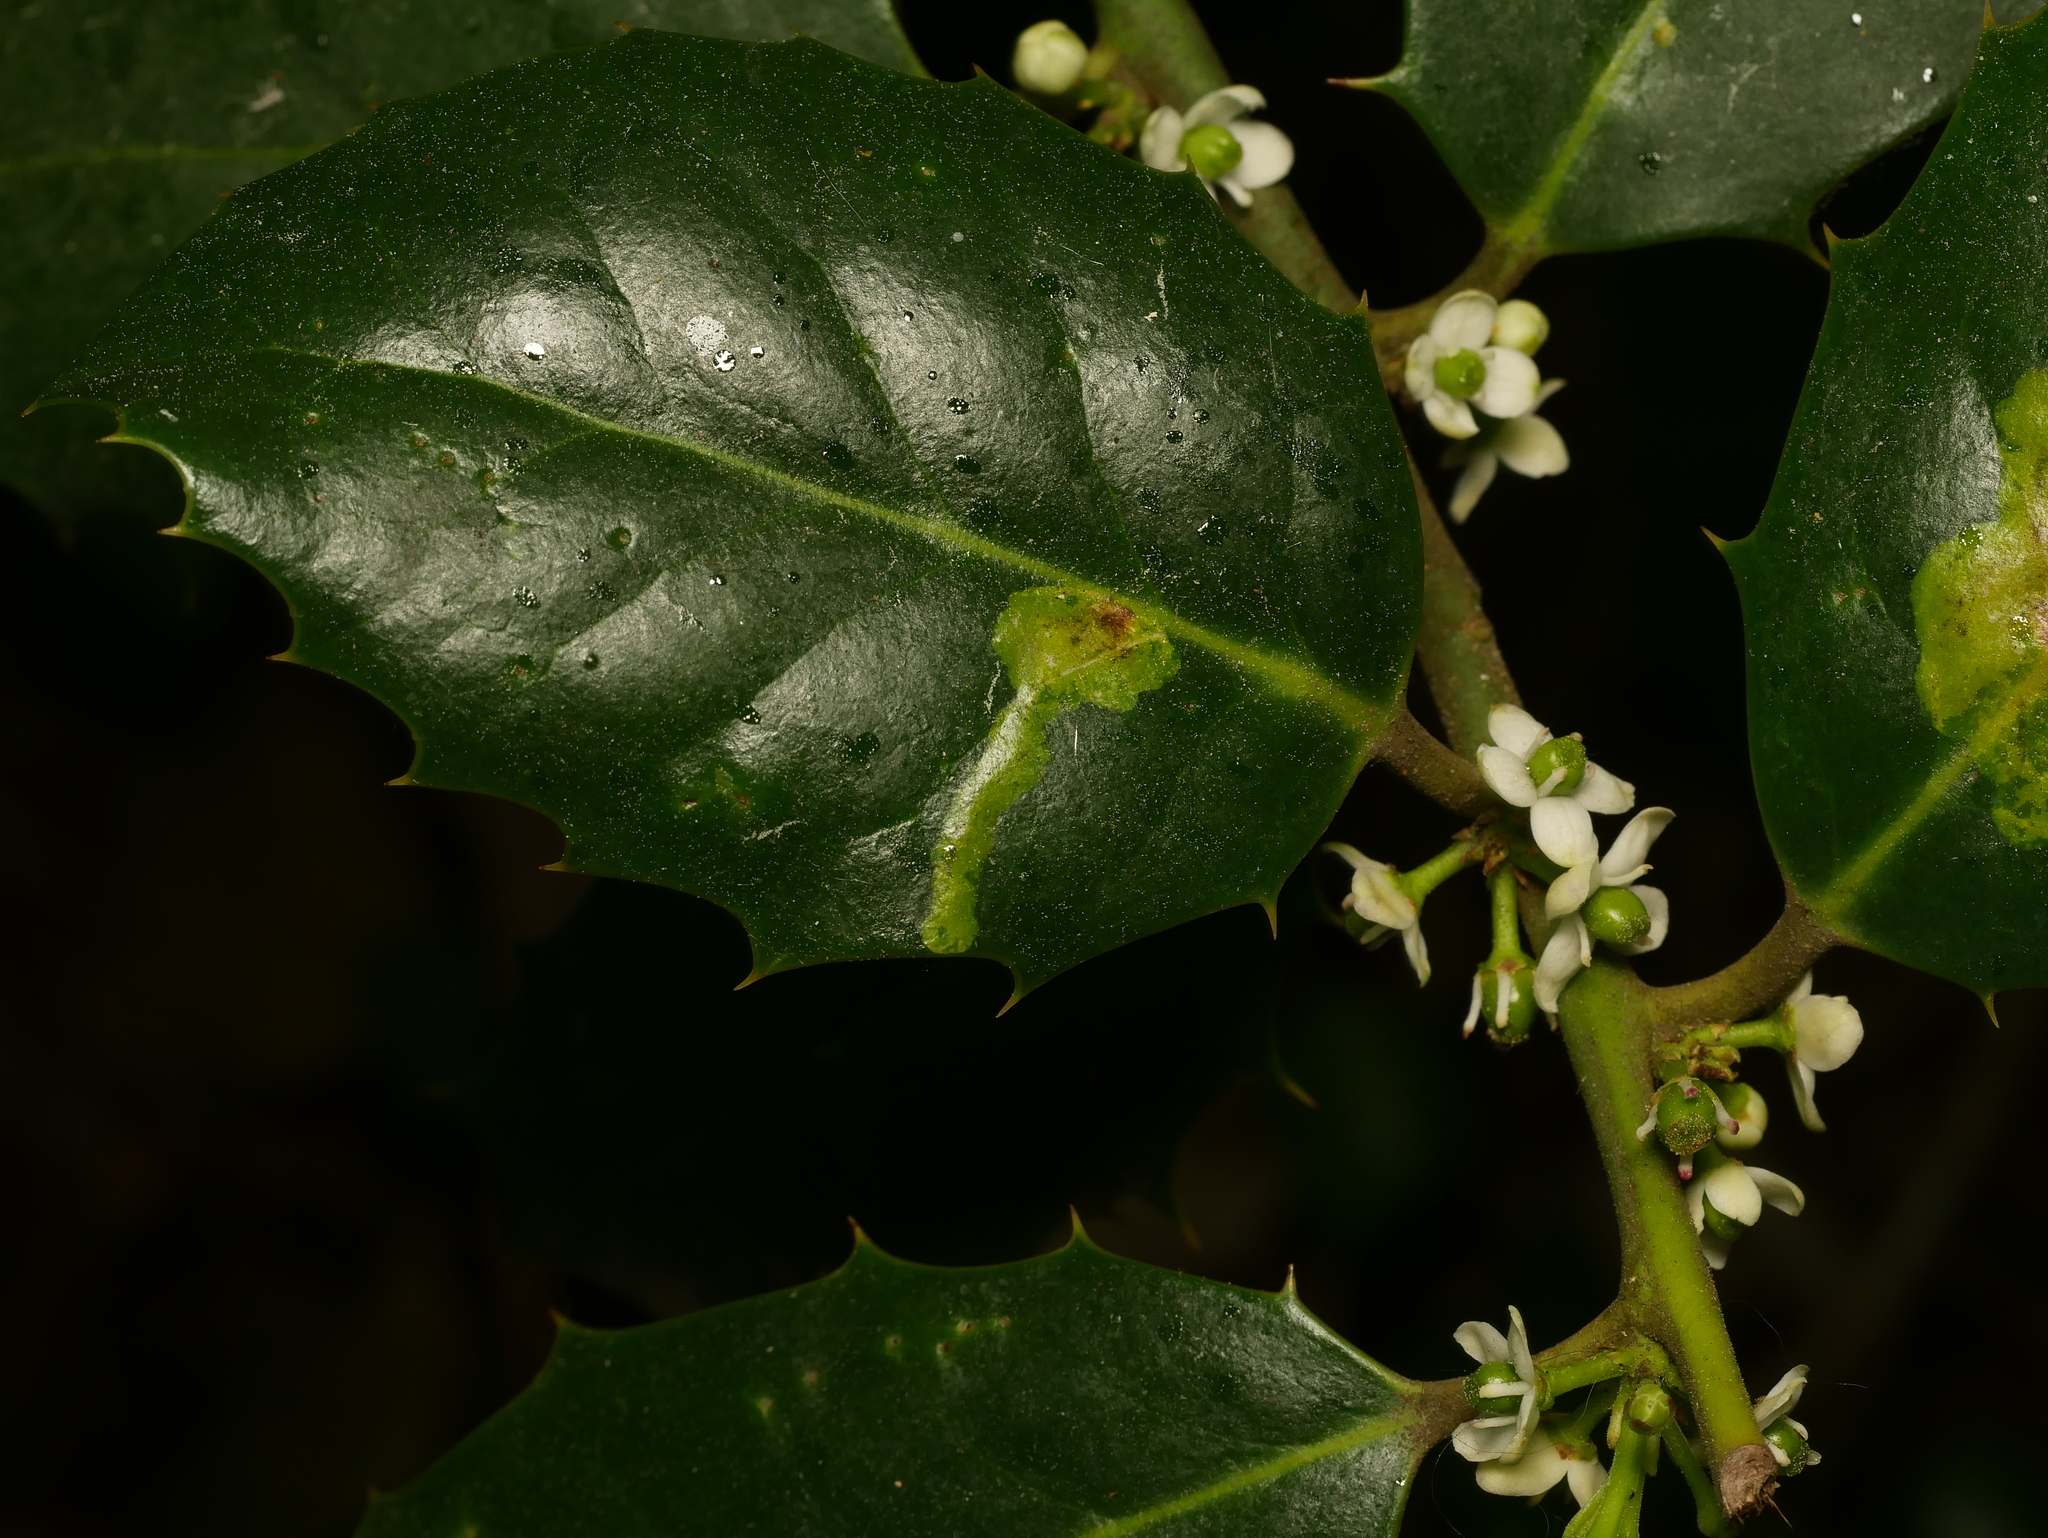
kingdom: Animalia
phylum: Arthropoda
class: Insecta
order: Diptera
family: Agromyzidae
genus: Phytomyza
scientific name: Phytomyza ilicis
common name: Holly leafminer
